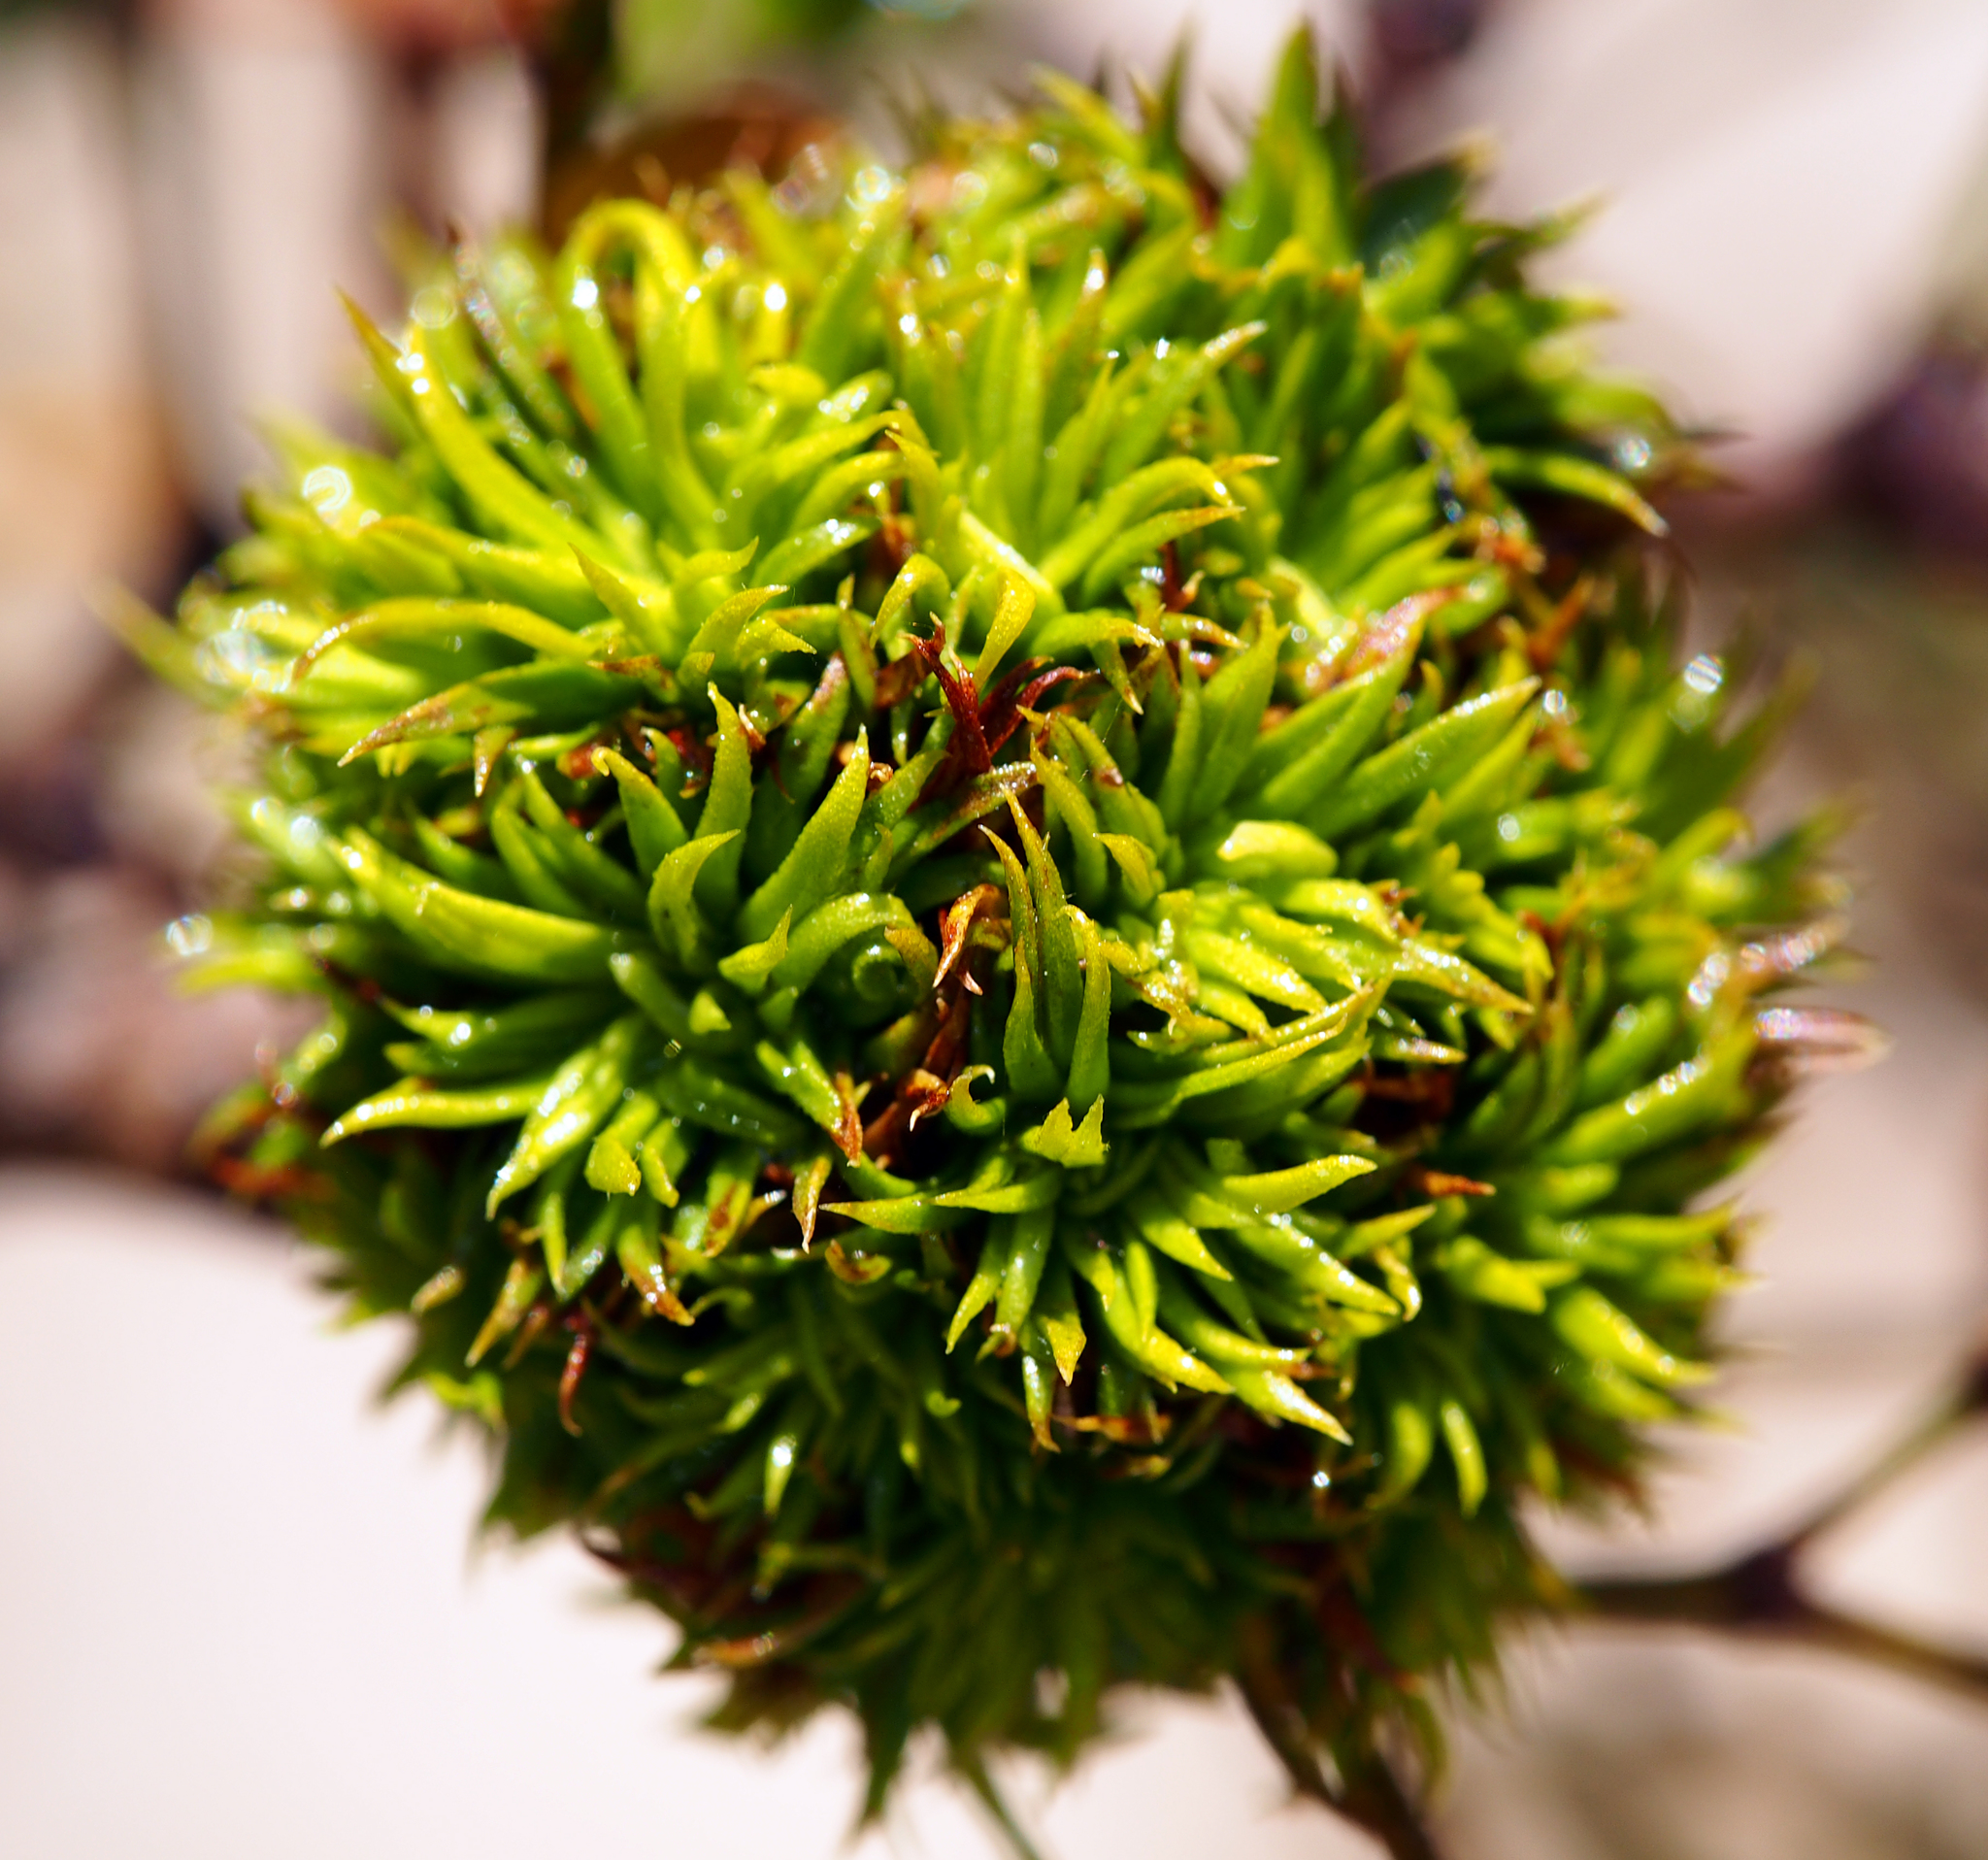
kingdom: Animalia
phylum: Arthropoda
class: Insecta
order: Diptera
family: Cecidomyiidae
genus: Asphondylia
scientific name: Asphondylia auripila
